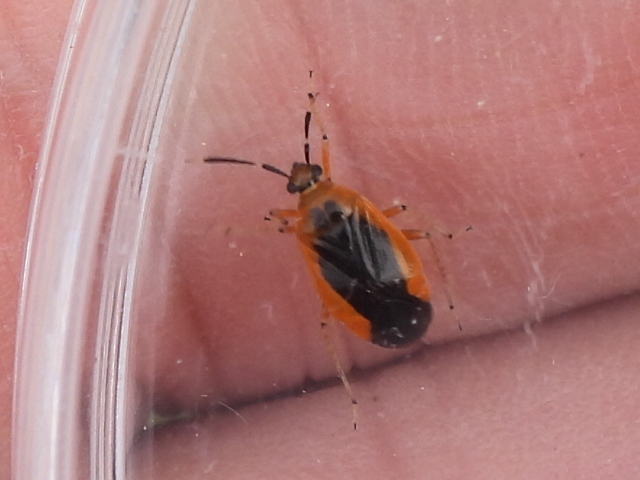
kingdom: Animalia
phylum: Arthropoda
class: Insecta
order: Hemiptera
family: Miridae
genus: Metriorrhynchomiris
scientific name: Metriorrhynchomiris dislocatus
